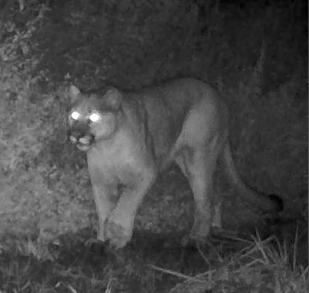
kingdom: Animalia
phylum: Chordata
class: Mammalia
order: Carnivora
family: Felidae
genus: Puma
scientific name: Puma concolor
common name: Puma
